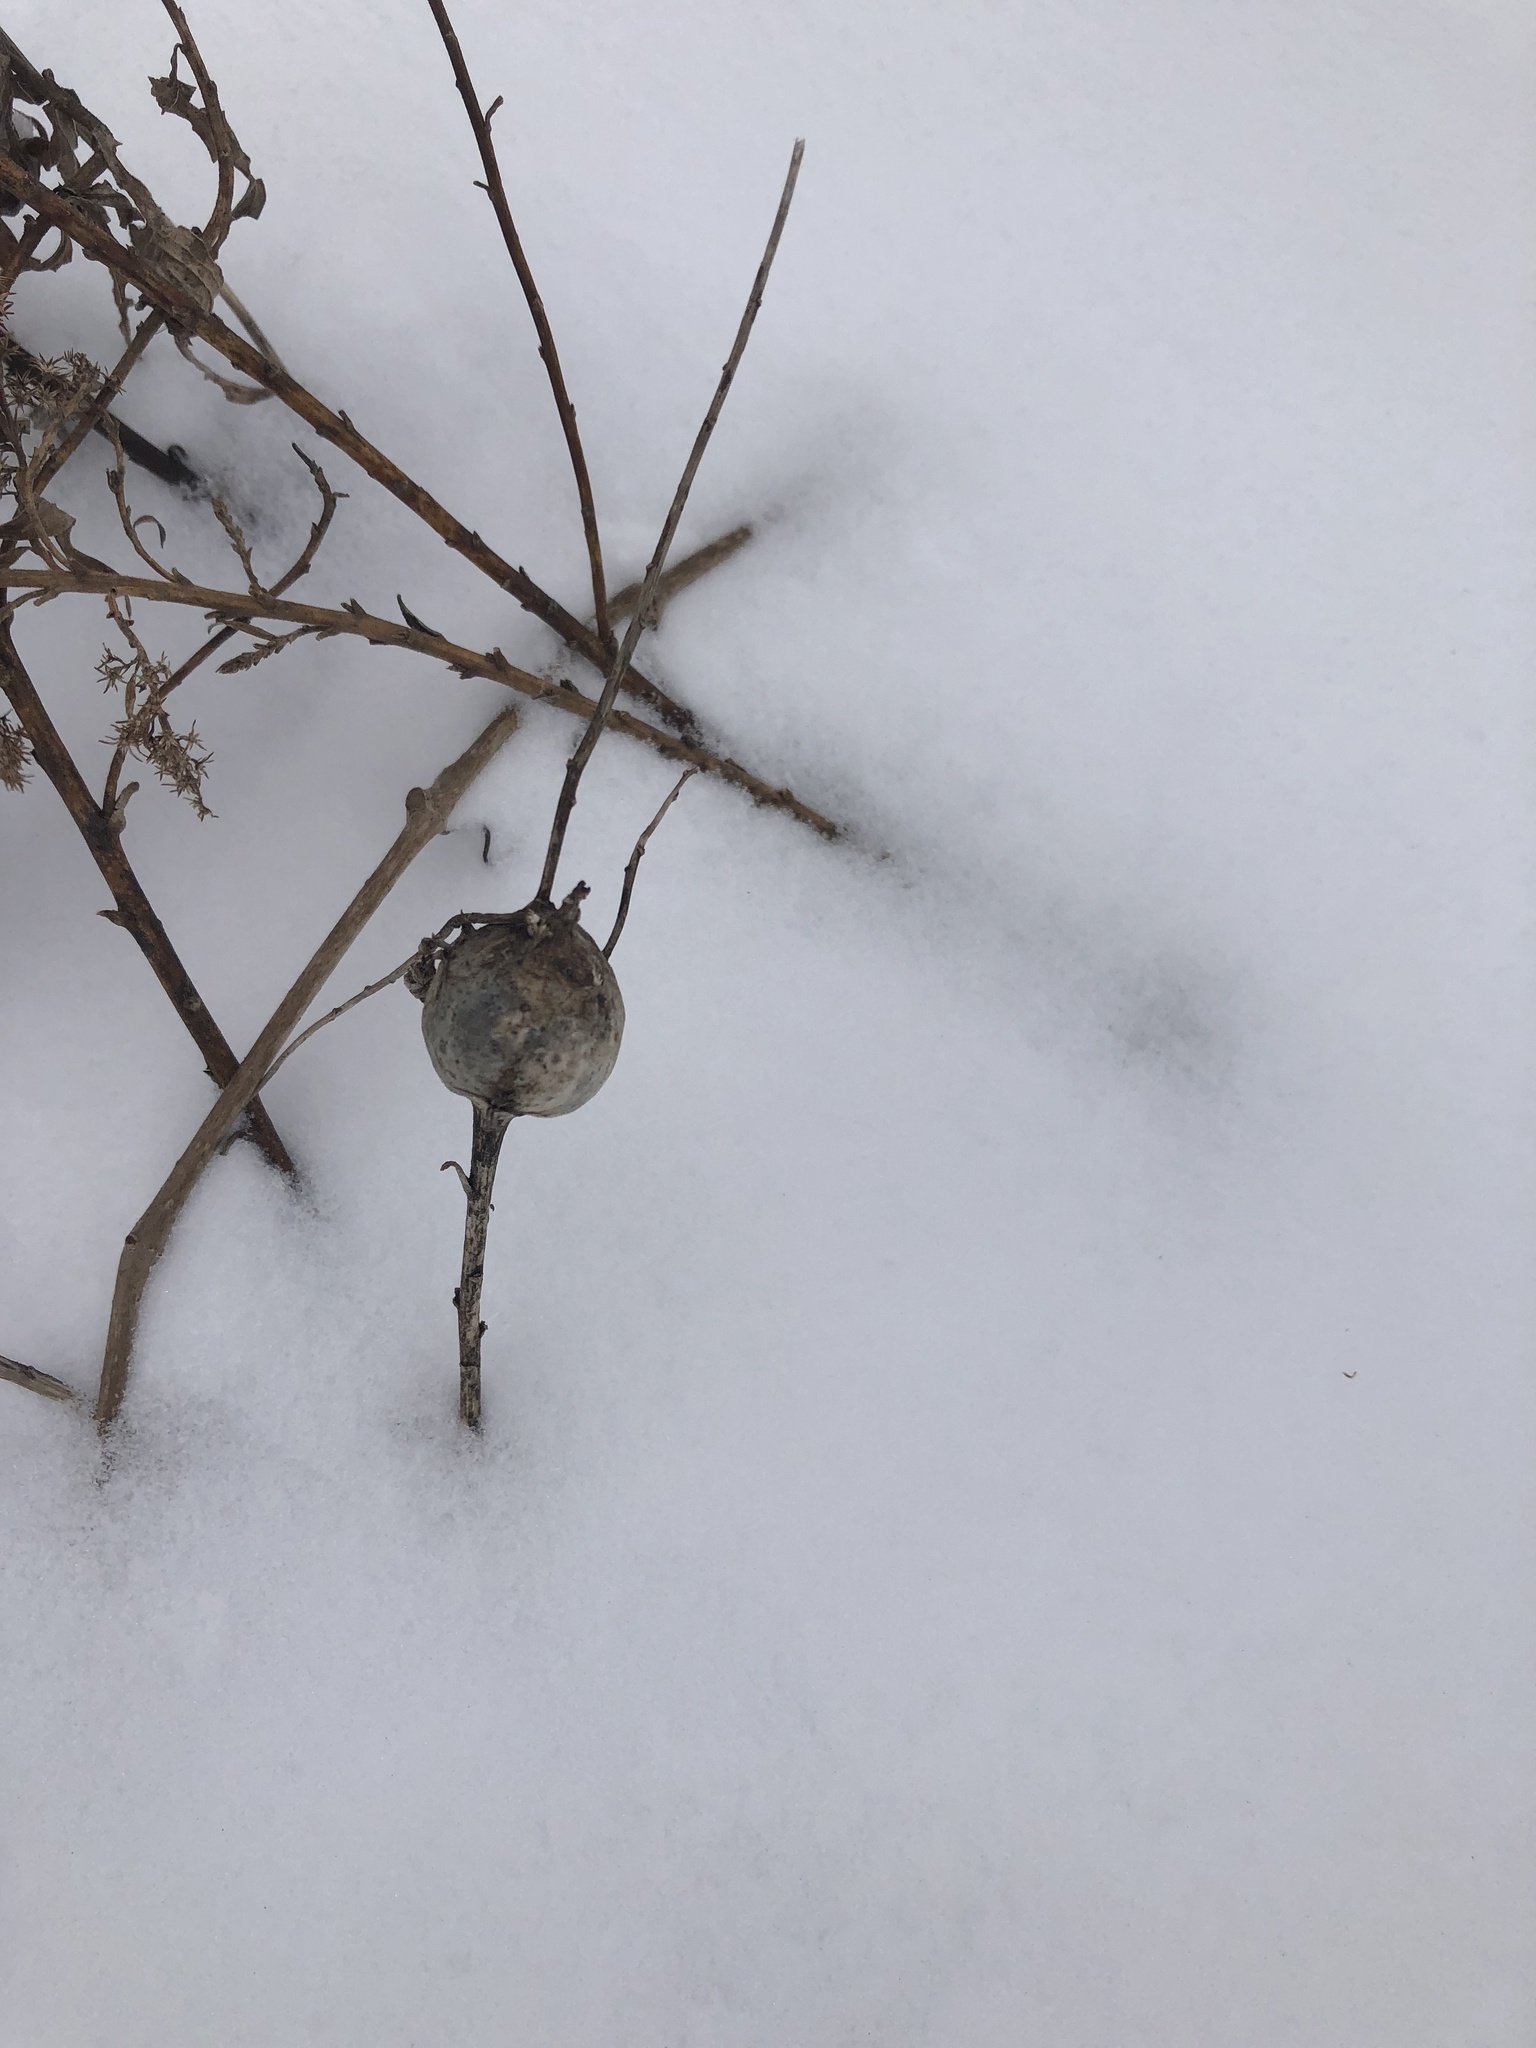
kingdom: Animalia
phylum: Arthropoda
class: Insecta
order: Diptera
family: Tephritidae
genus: Eurosta
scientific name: Eurosta solidaginis
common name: Goldenrod gall fly
